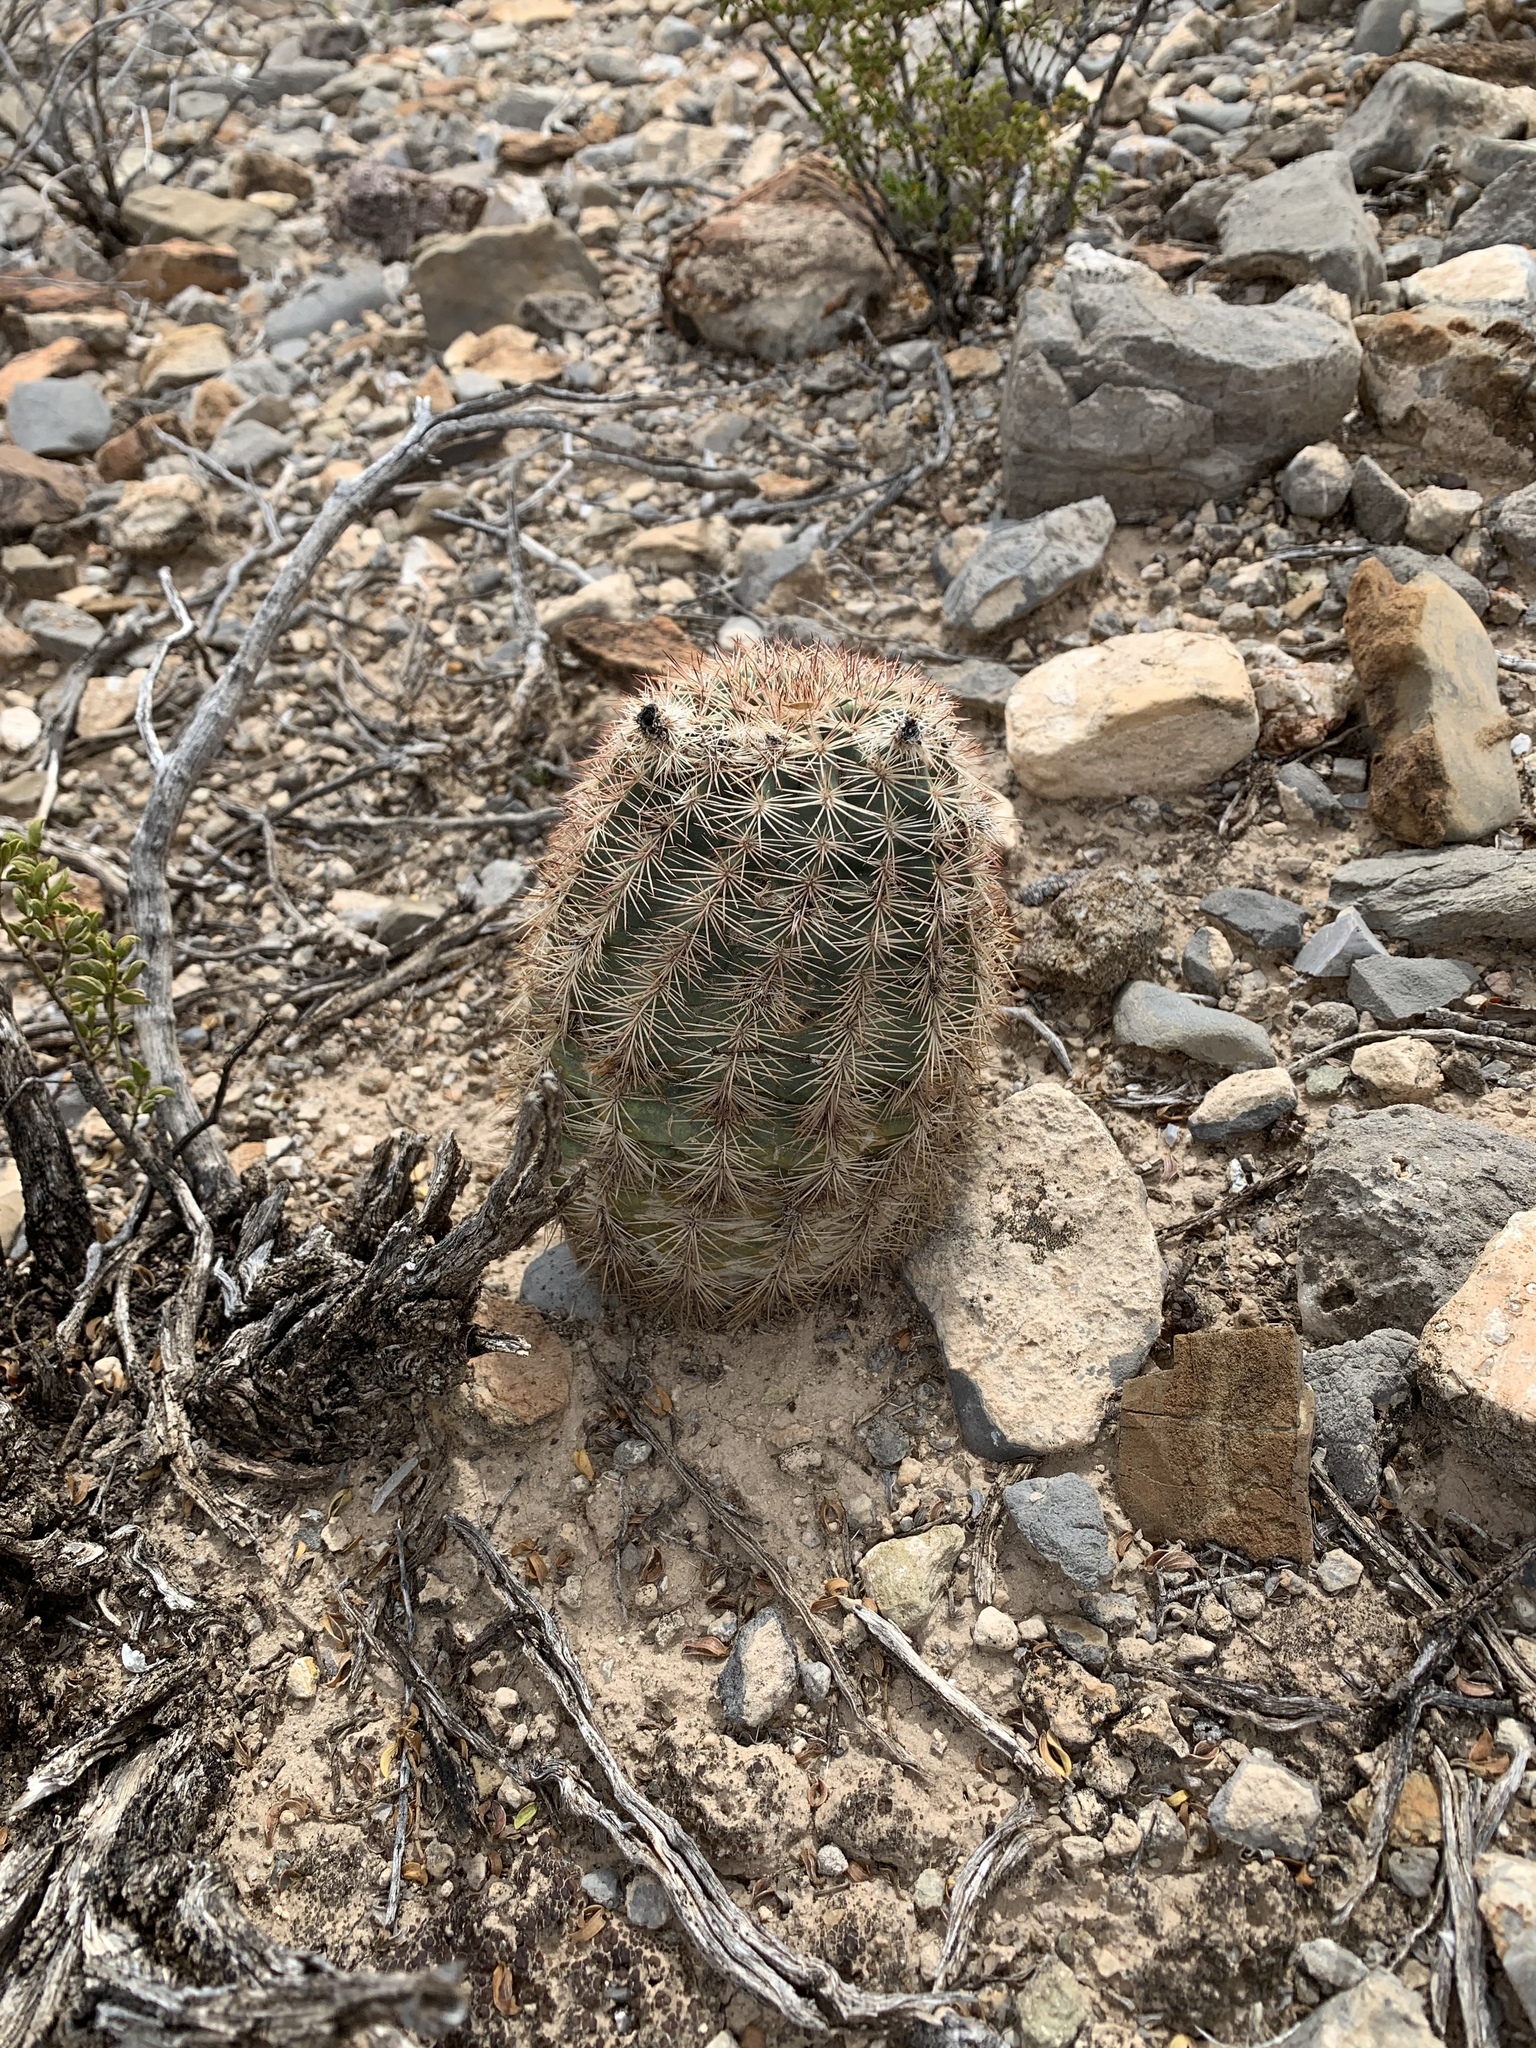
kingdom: Plantae
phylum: Tracheophyta
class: Magnoliopsida
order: Caryophyllales
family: Cactaceae
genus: Echinocereus
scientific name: Echinocereus dasyacanthus
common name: Spiny hedgehog cactus
